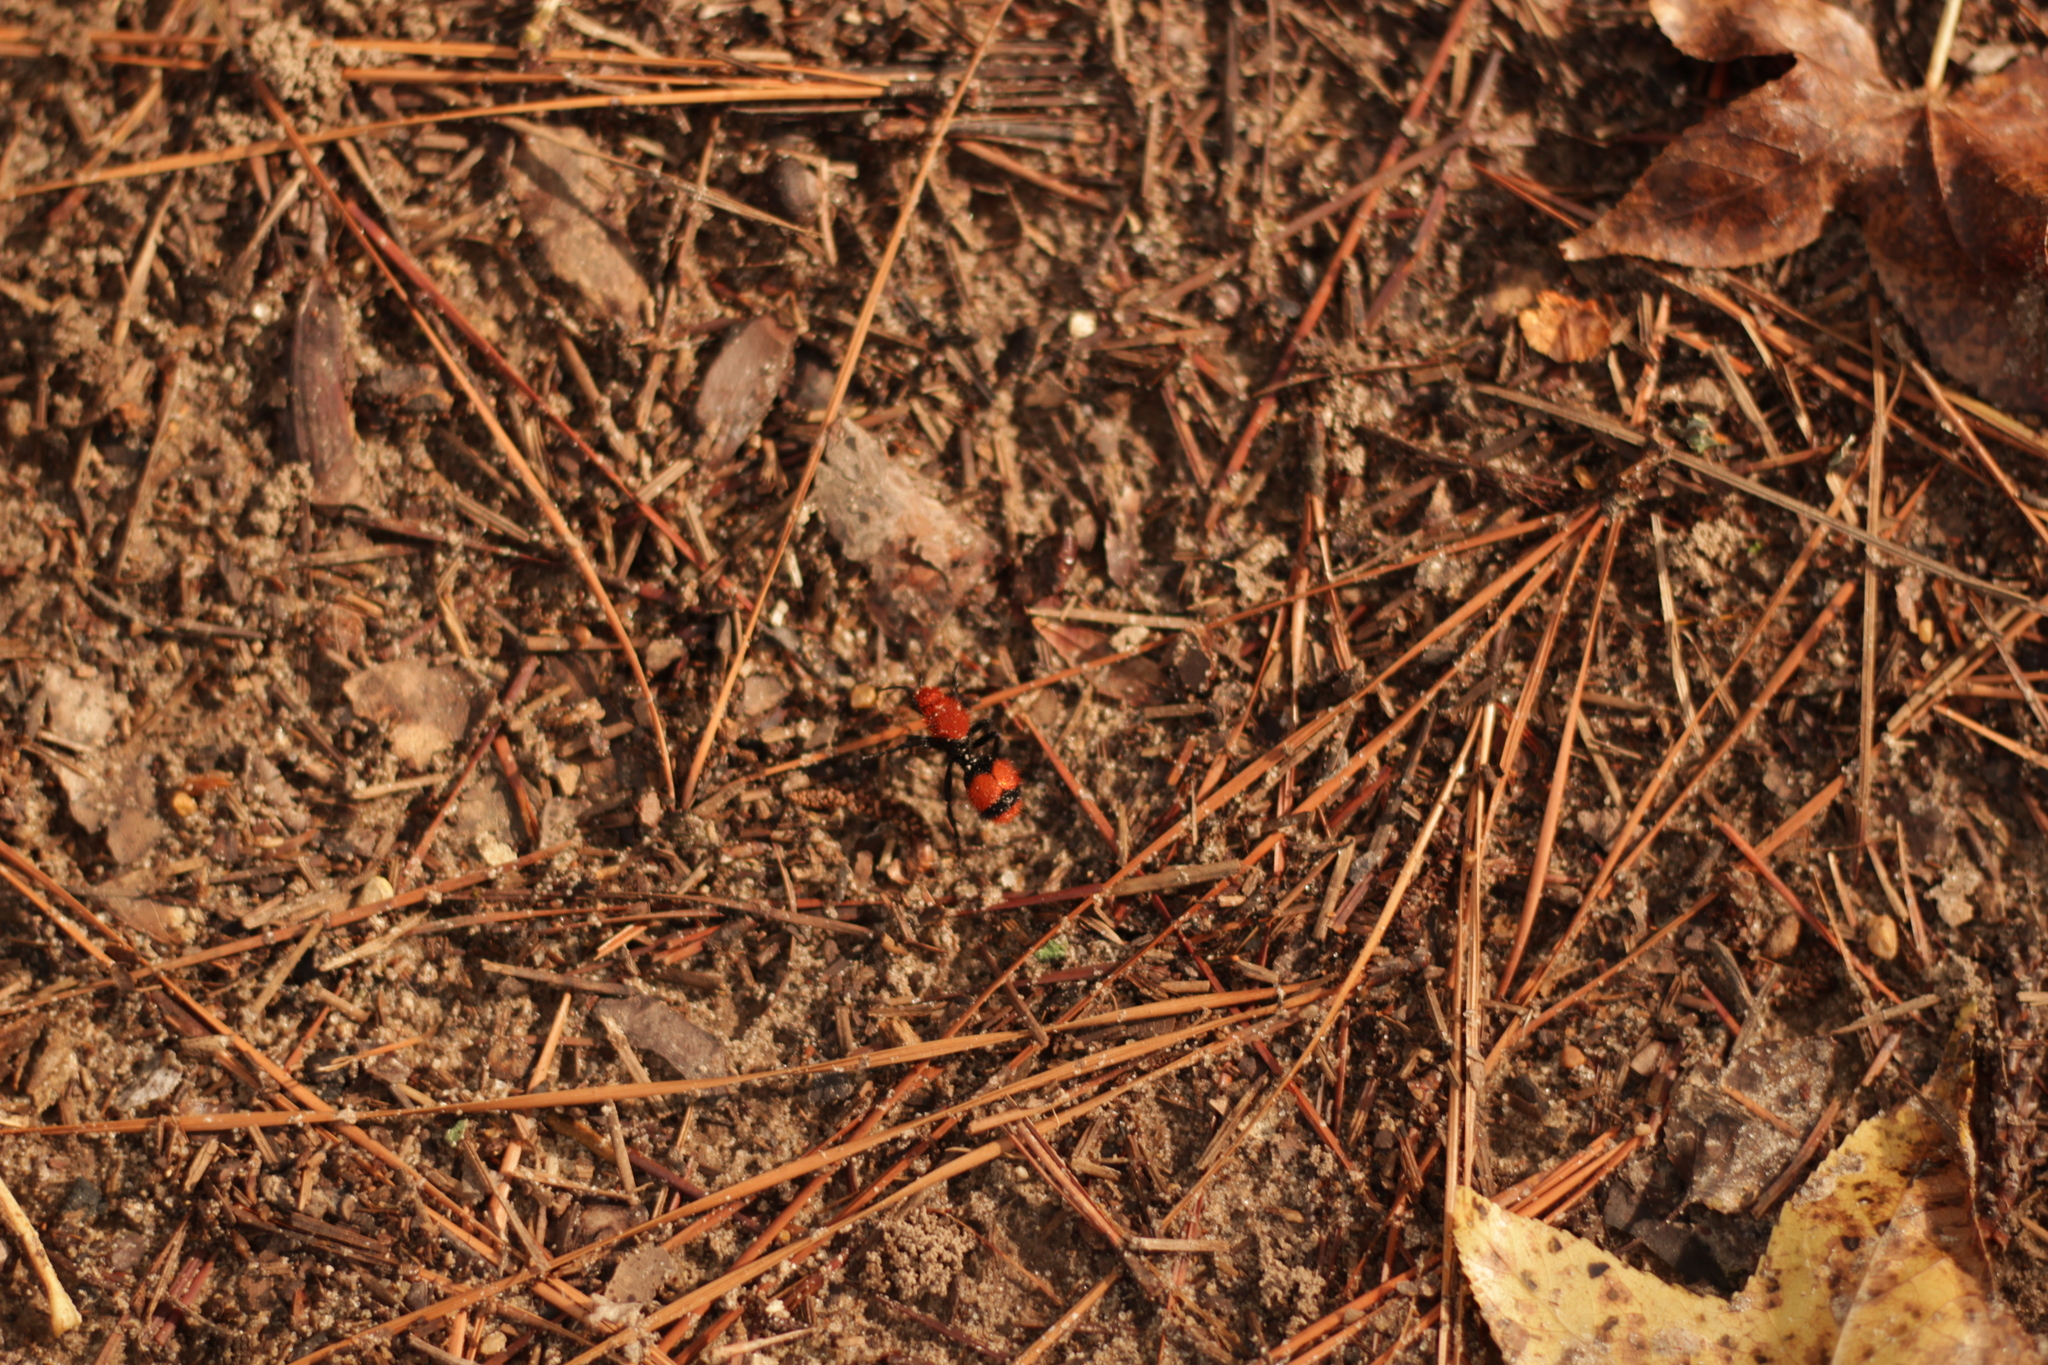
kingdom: Animalia
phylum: Arthropoda
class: Insecta
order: Hymenoptera
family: Mutillidae
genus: Dasymutilla
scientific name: Dasymutilla occidentalis
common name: Common eastern velvet ant
